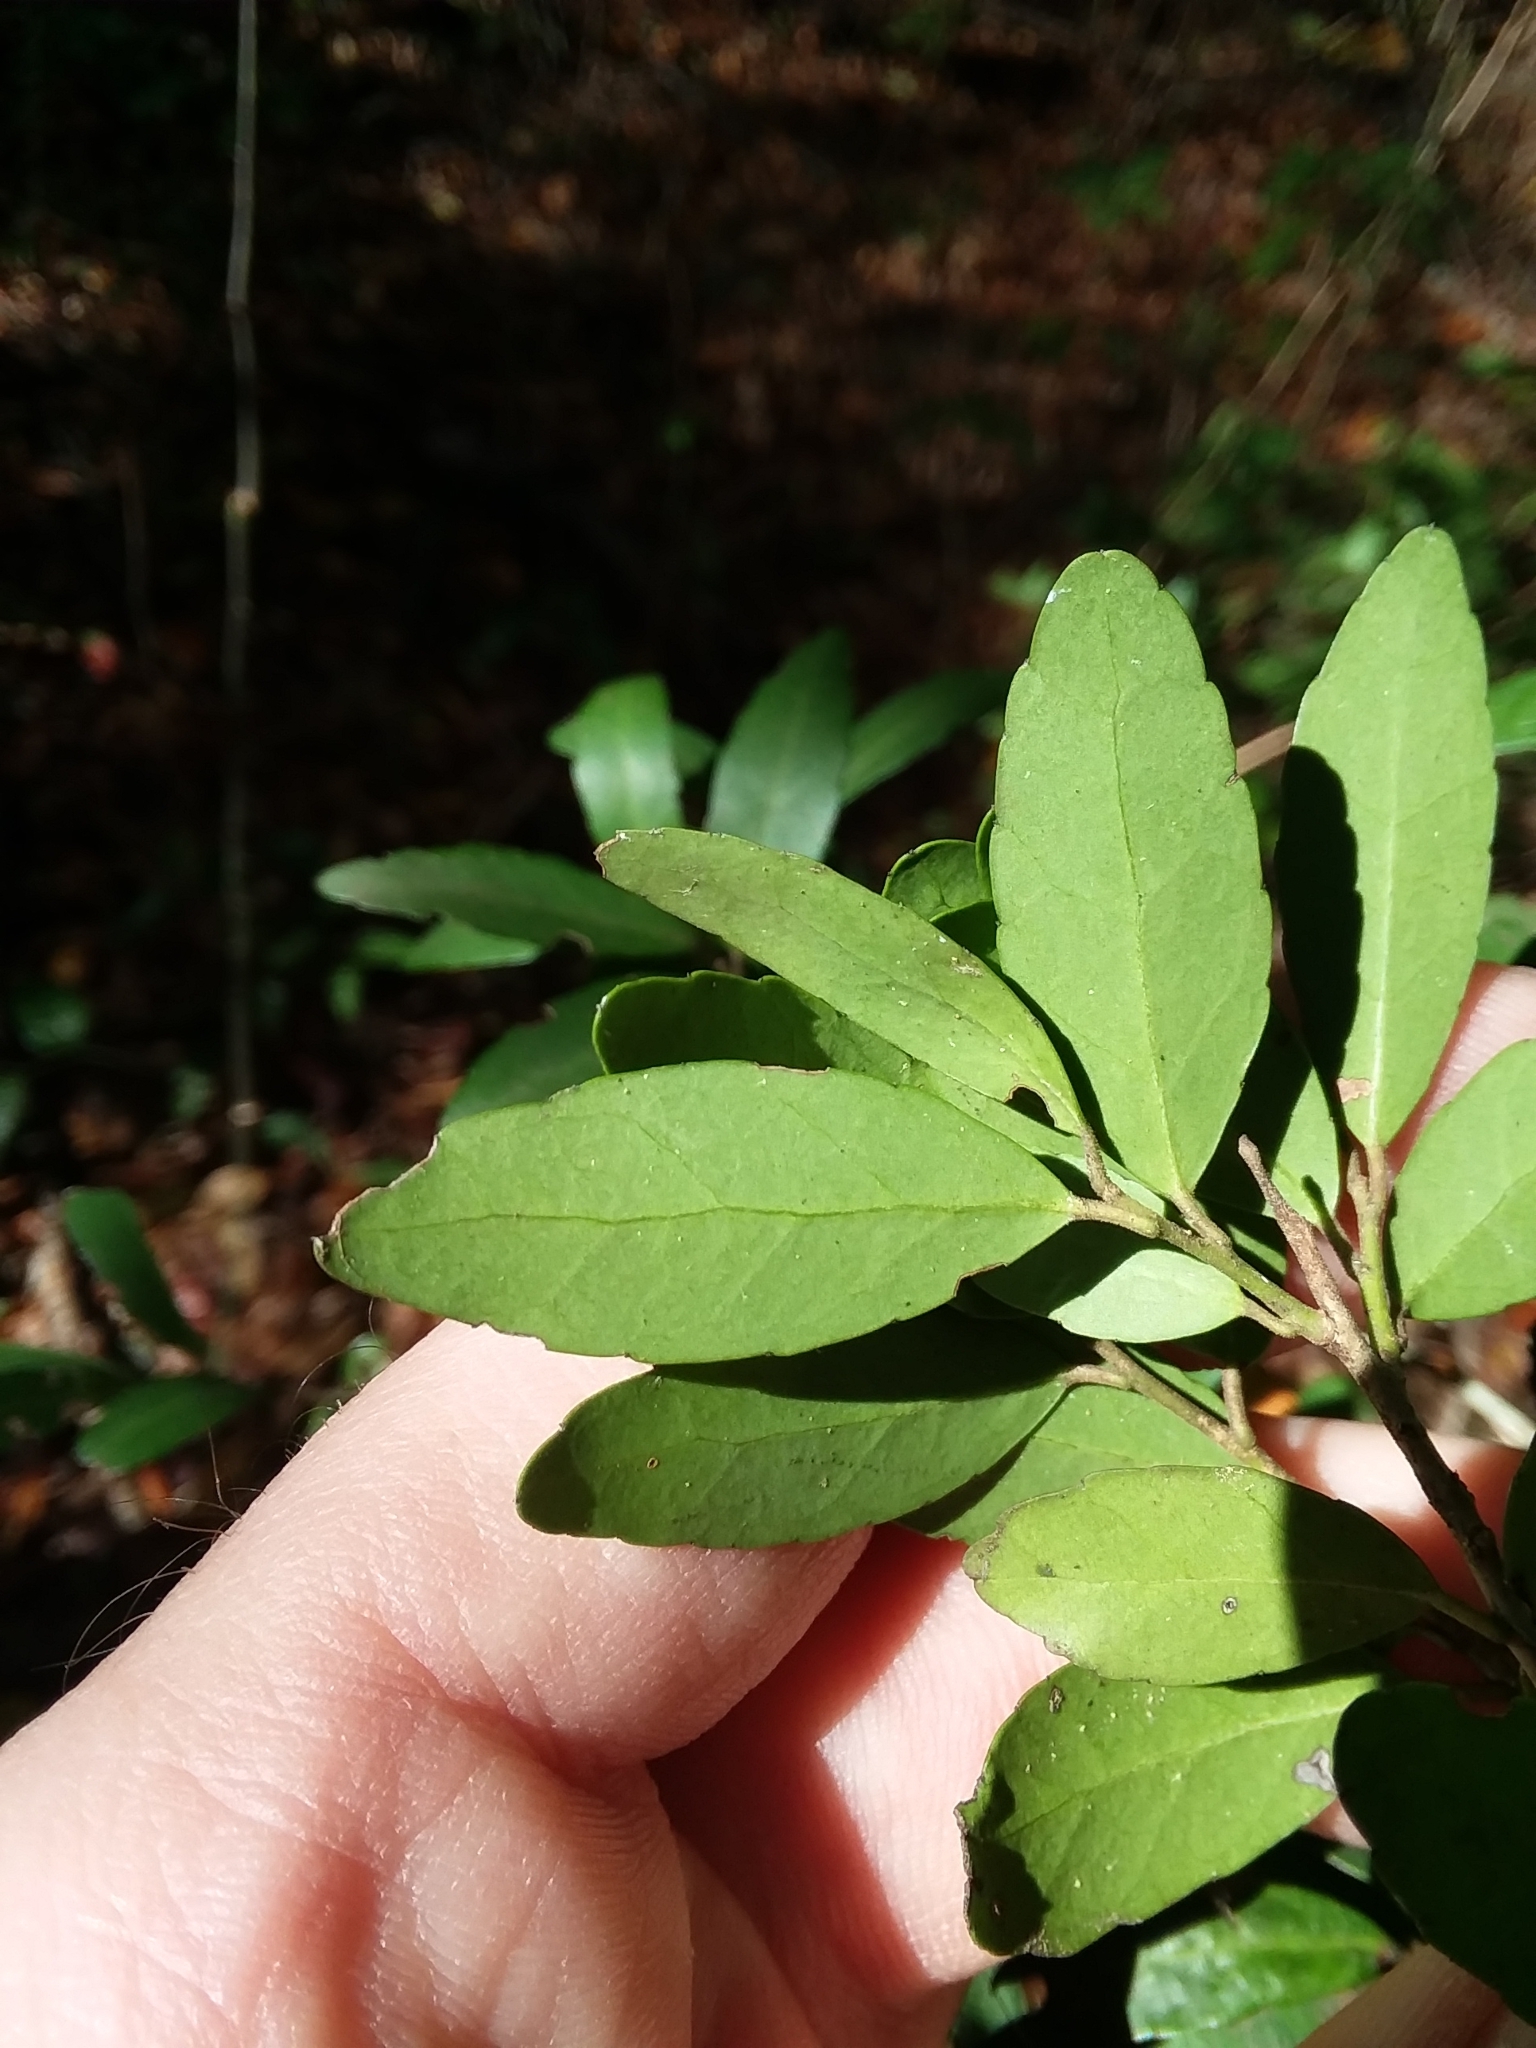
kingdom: Plantae
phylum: Tracheophyta
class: Magnoliopsida
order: Aquifoliales
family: Aquifoliaceae
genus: Ilex
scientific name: Ilex vomitoria
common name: Yaupon holly
